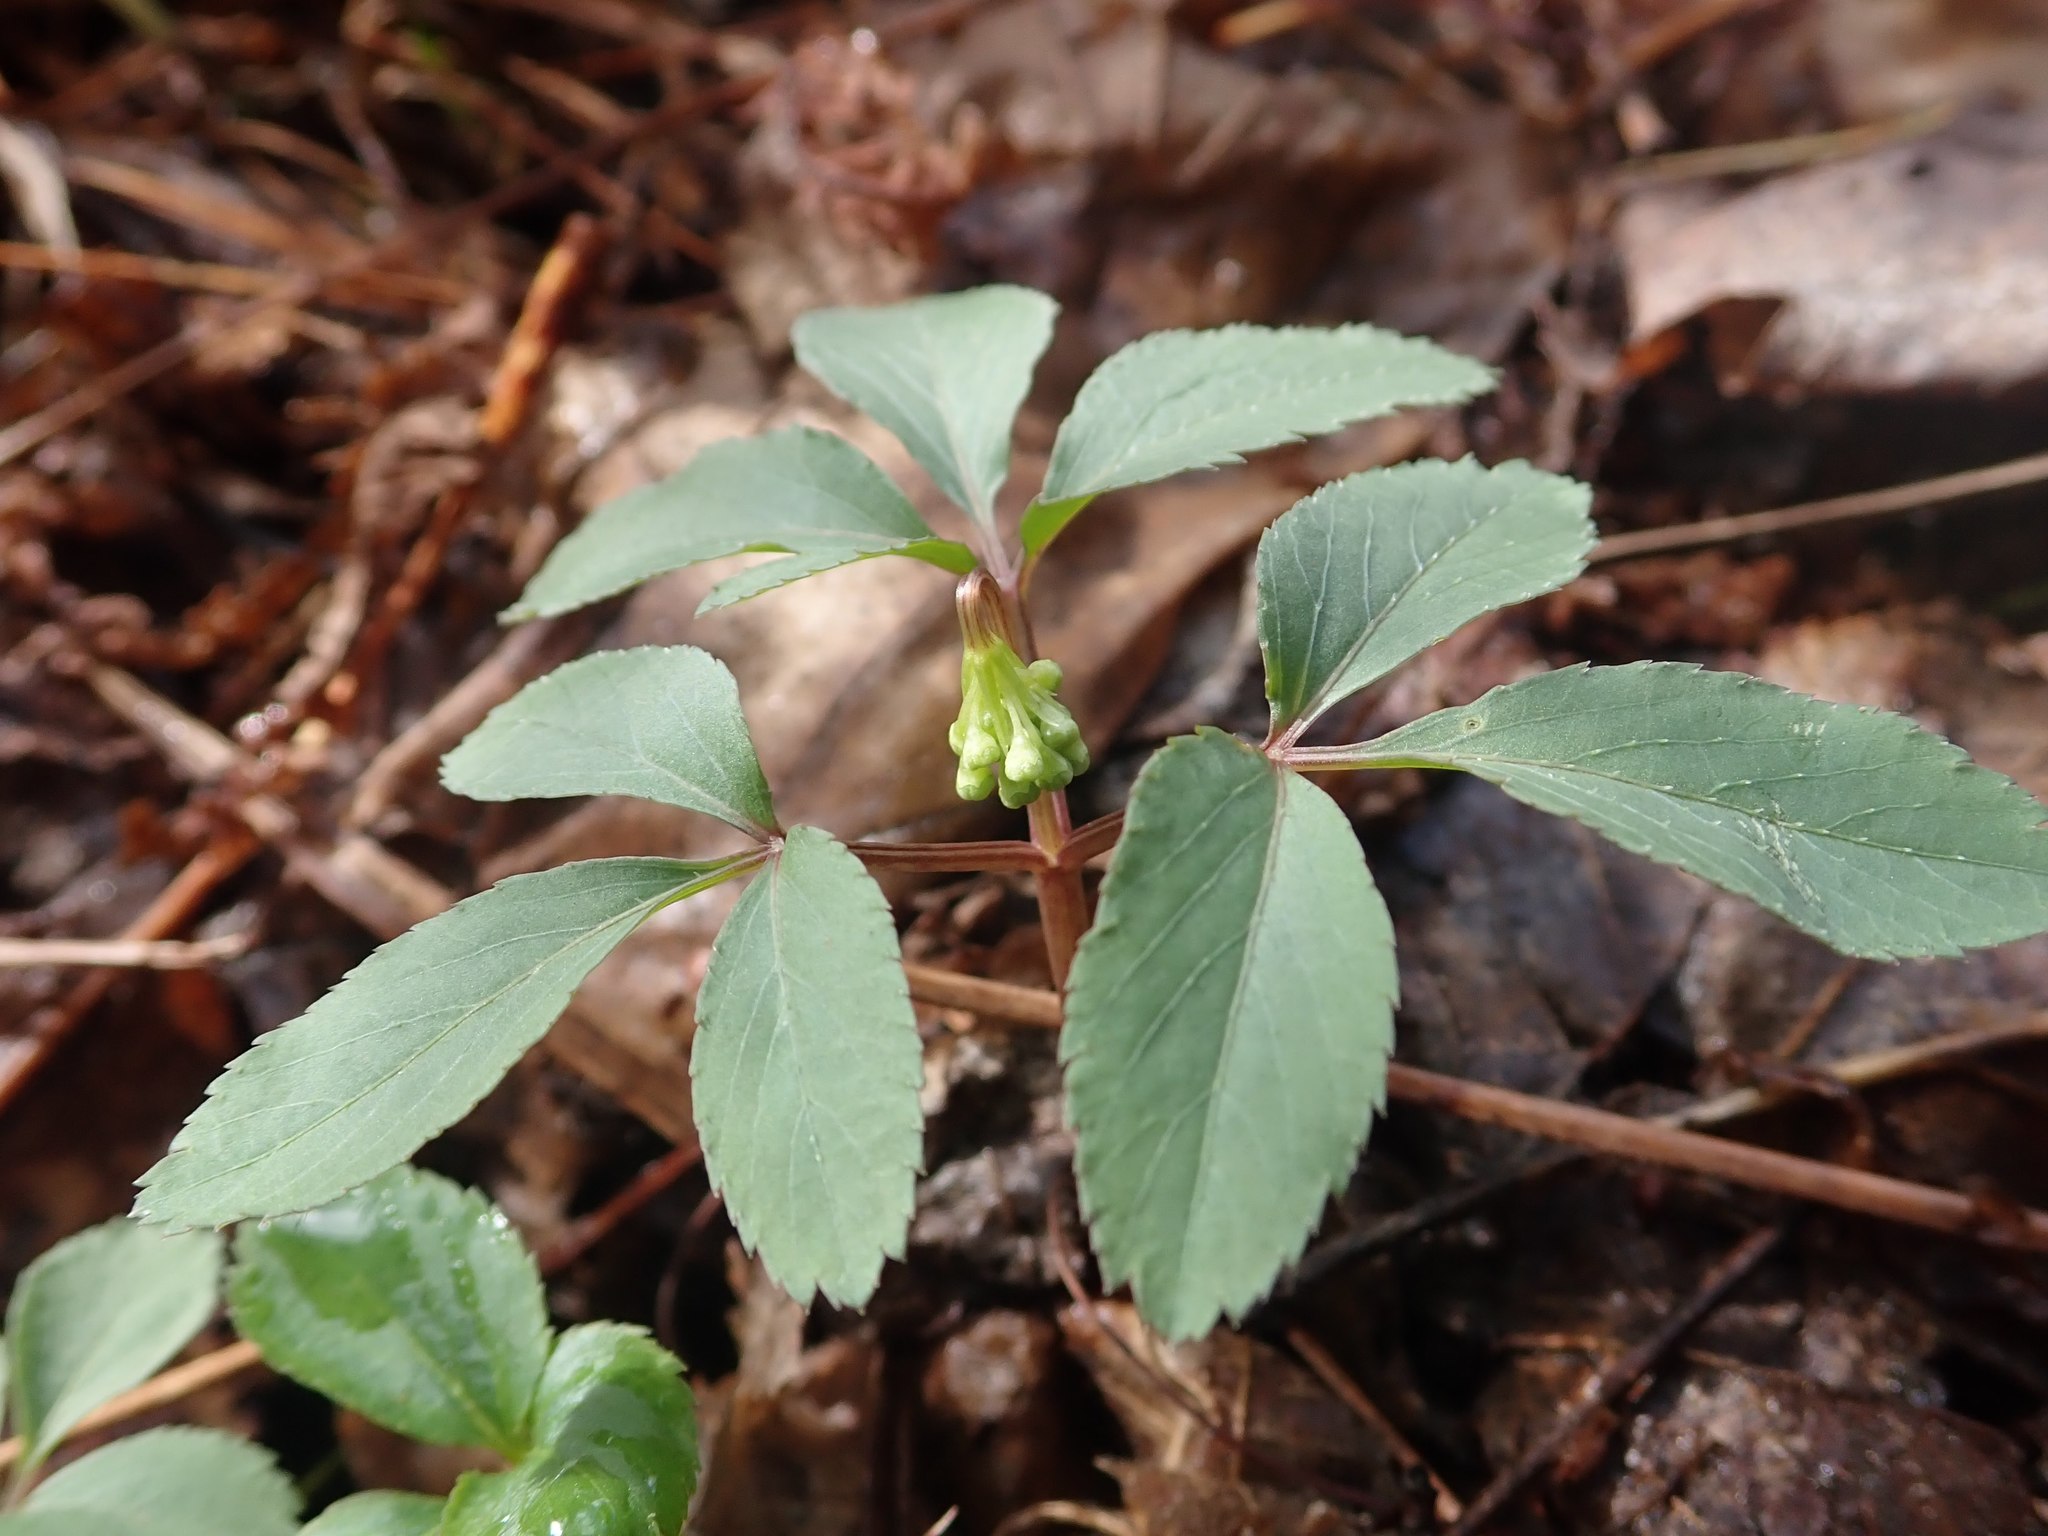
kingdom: Plantae
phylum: Tracheophyta
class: Magnoliopsida
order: Apiales
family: Araliaceae
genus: Panax
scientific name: Panax trifolius
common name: Dwarf ginseng
